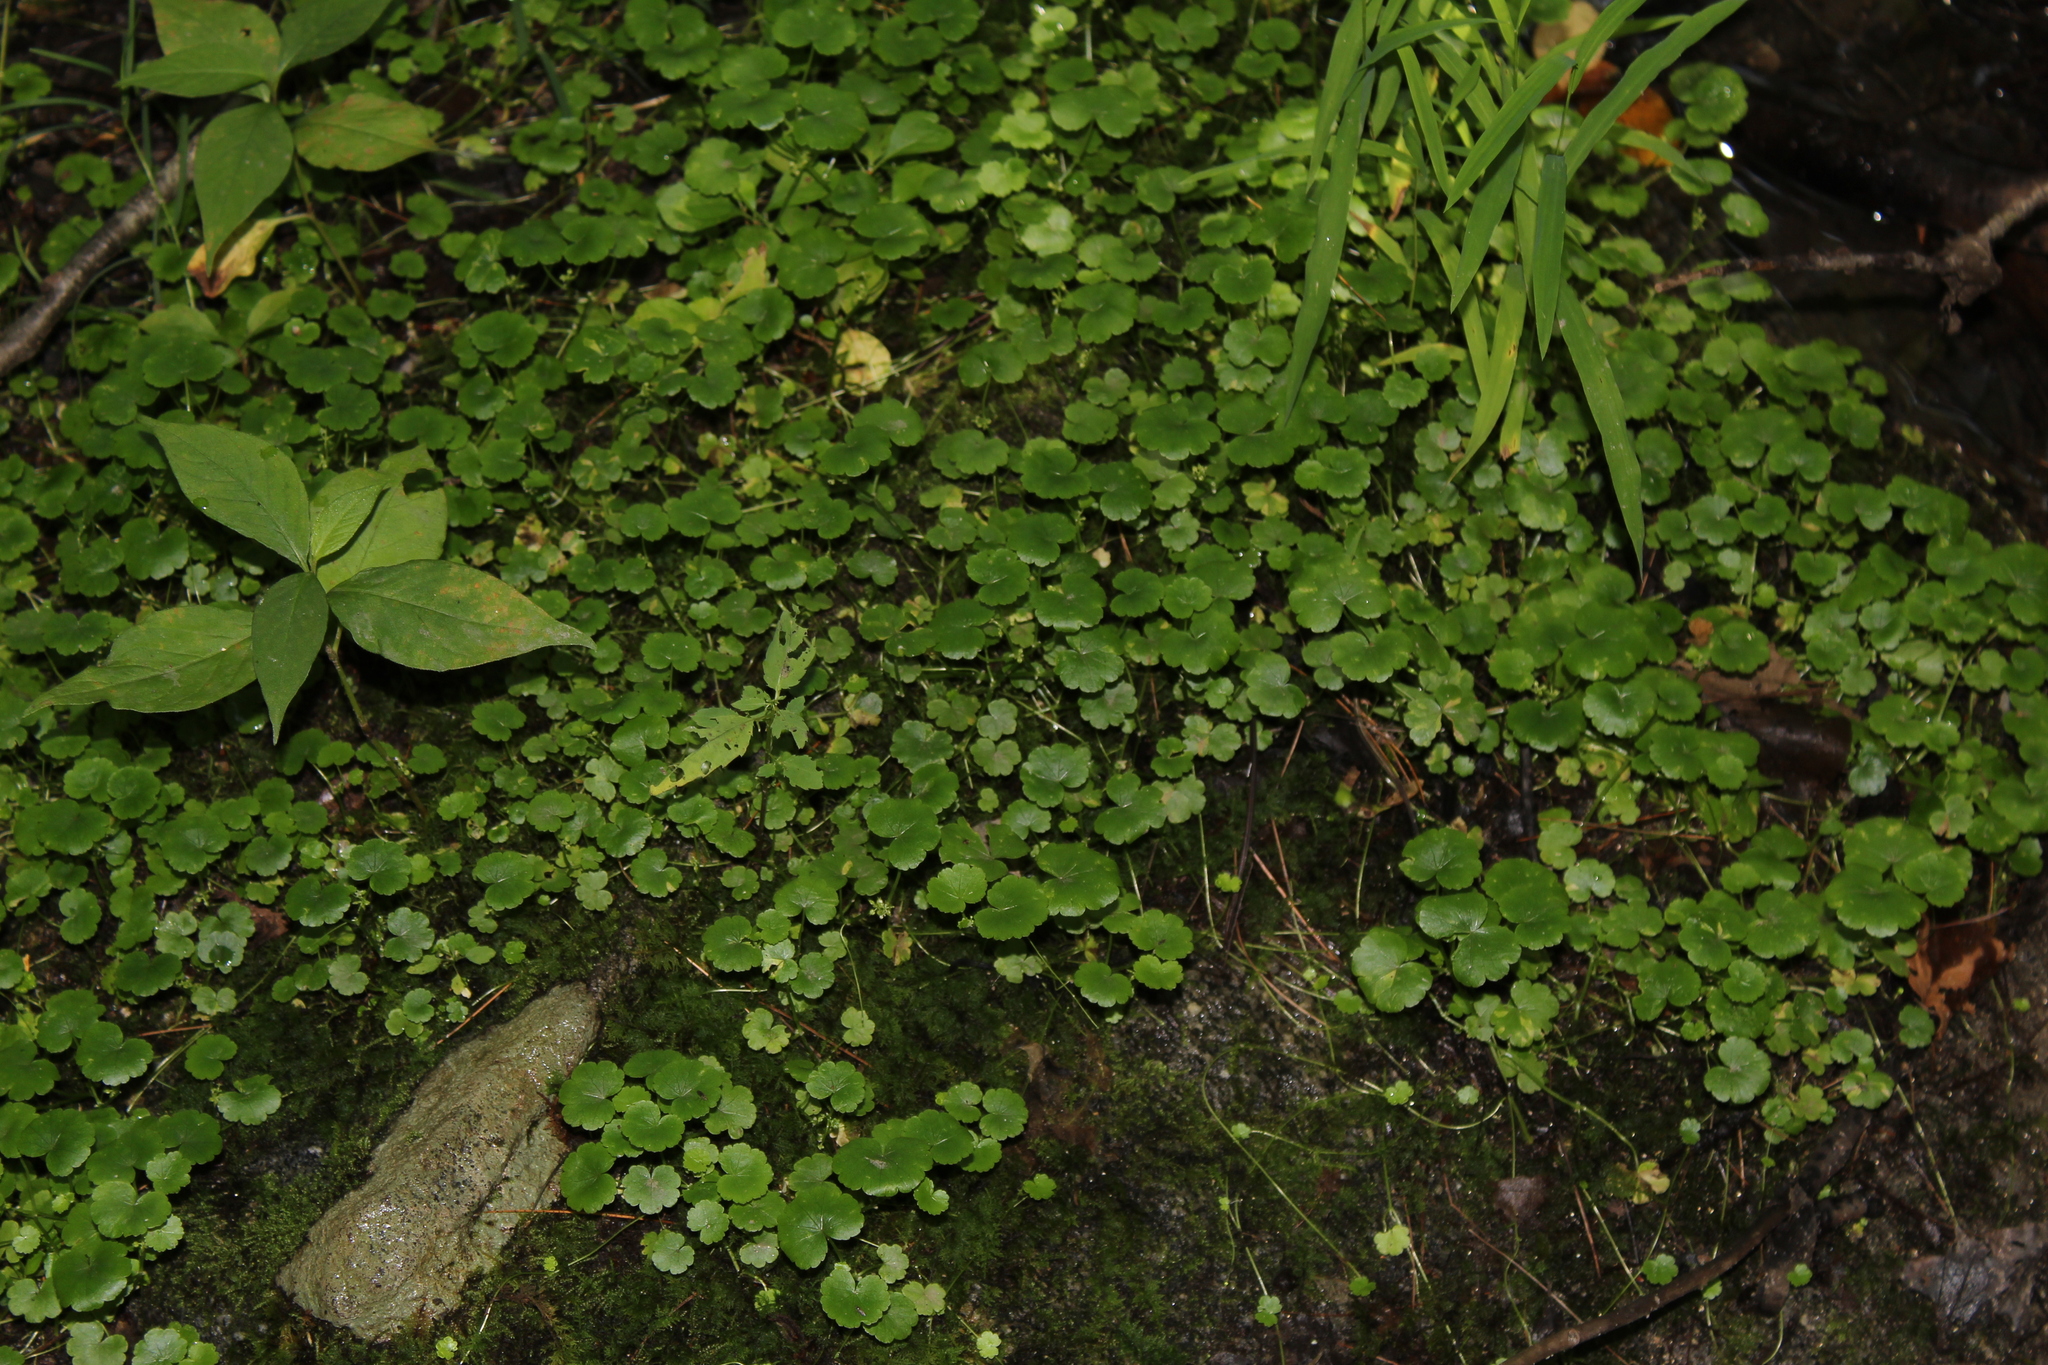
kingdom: Plantae
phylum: Tracheophyta
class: Magnoliopsida
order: Apiales
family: Araliaceae
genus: Hydrocotyle
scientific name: Hydrocotyle americana
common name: American water-pennywort
